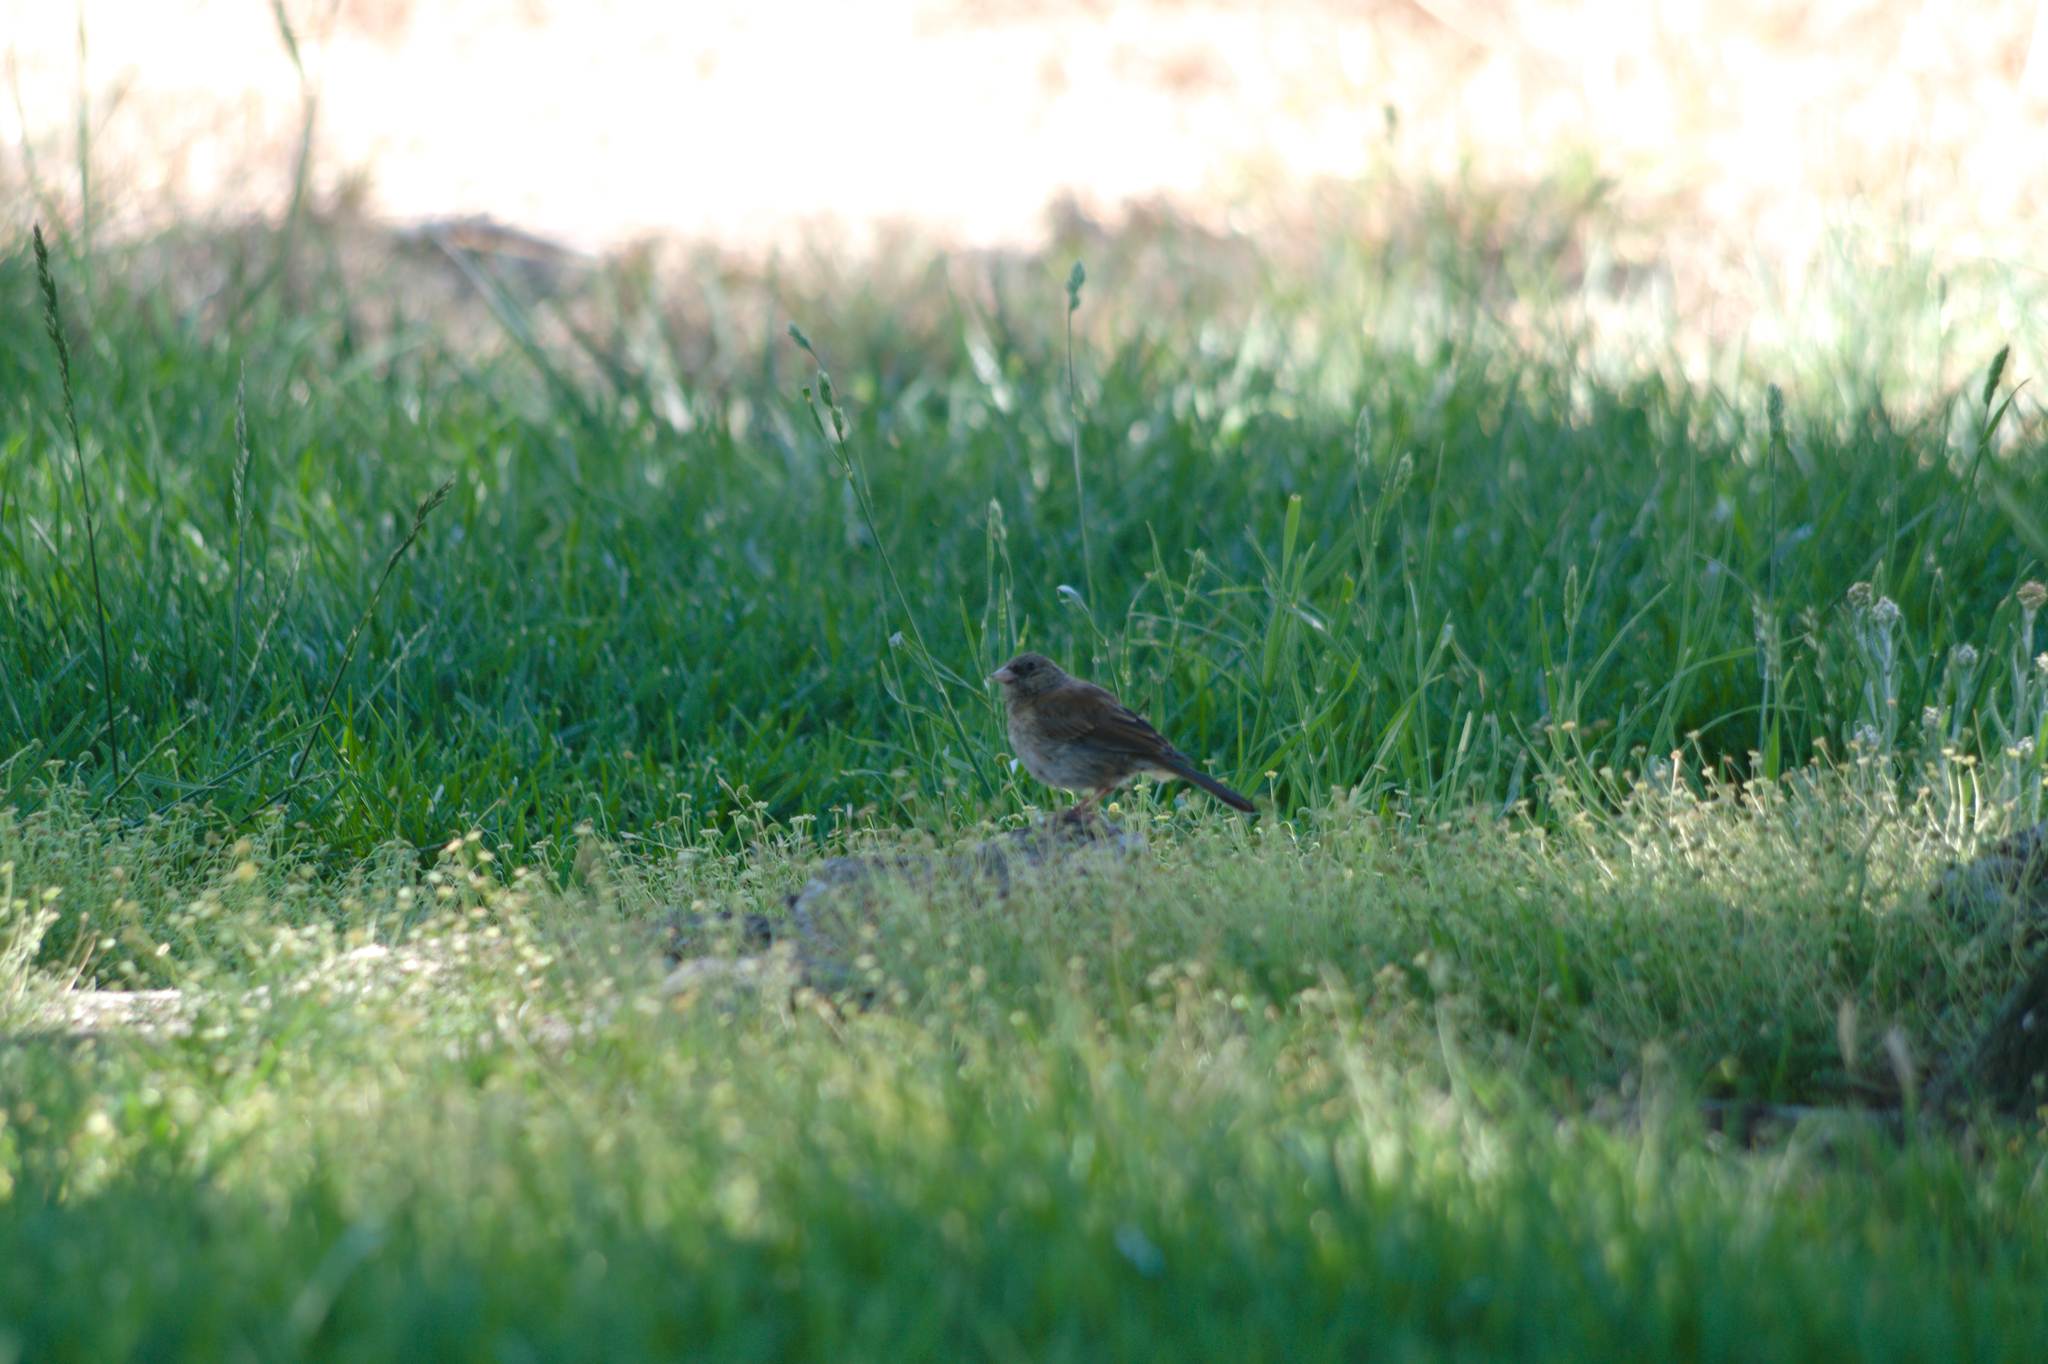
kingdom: Animalia
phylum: Chordata
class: Aves
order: Passeriformes
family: Passerellidae
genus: Junco
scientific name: Junco hyemalis
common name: Dark-eyed junco
